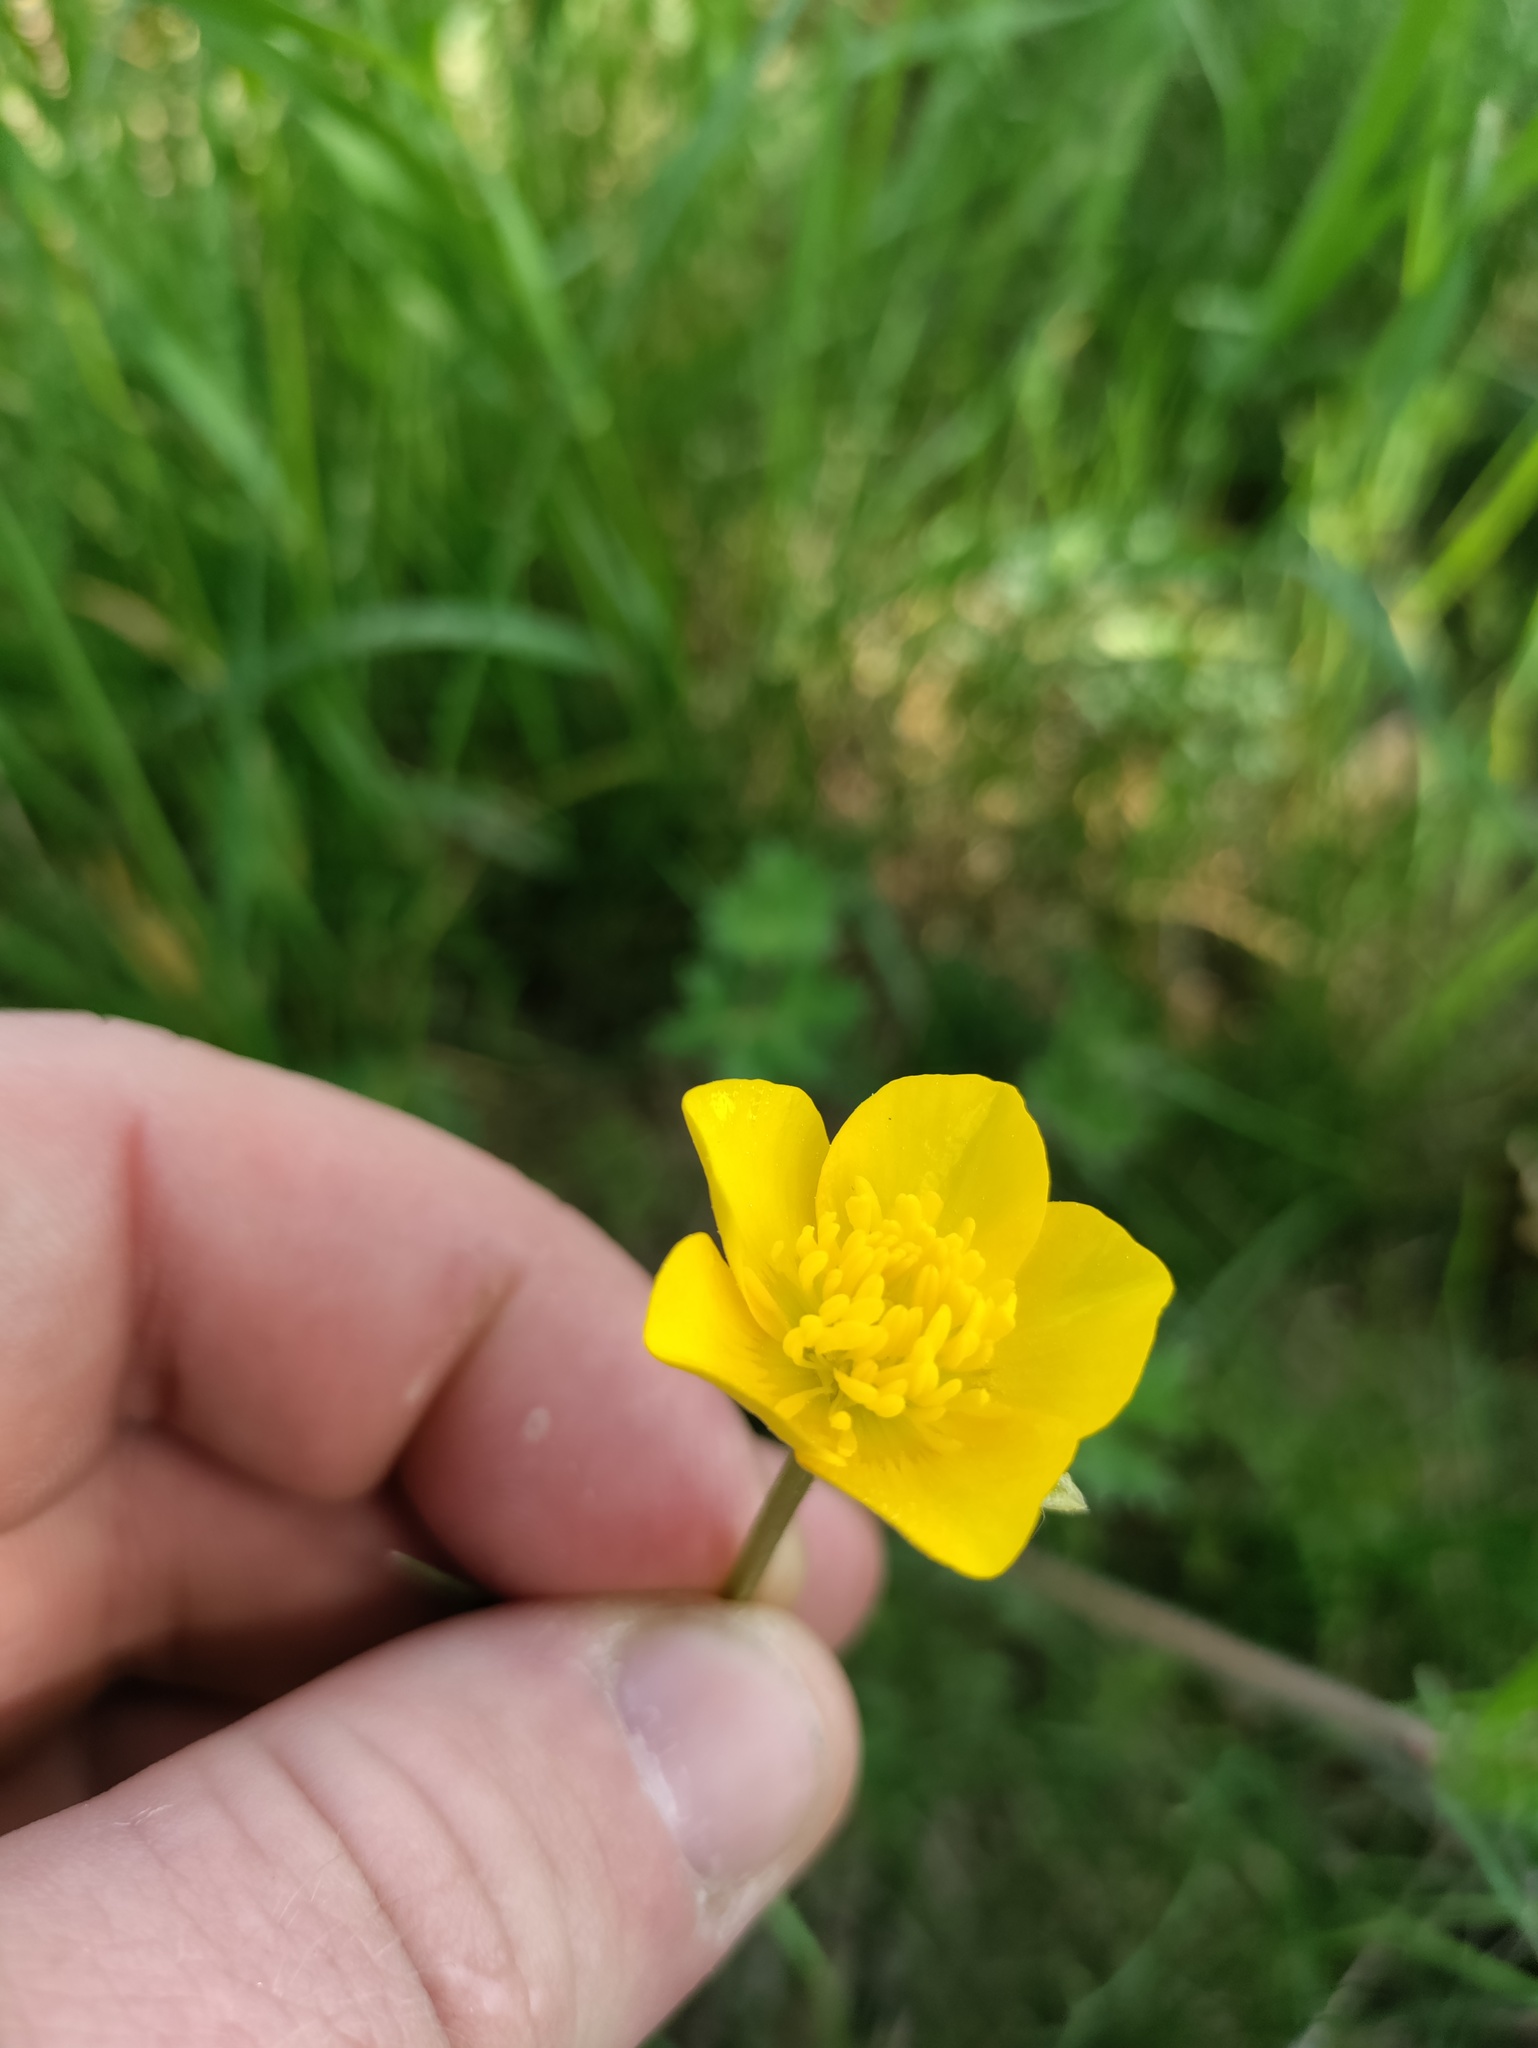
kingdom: Plantae
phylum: Tracheophyta
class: Magnoliopsida
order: Ranunculales
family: Ranunculaceae
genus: Ranunculus
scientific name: Ranunculus bulbosus
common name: Bulbous buttercup
